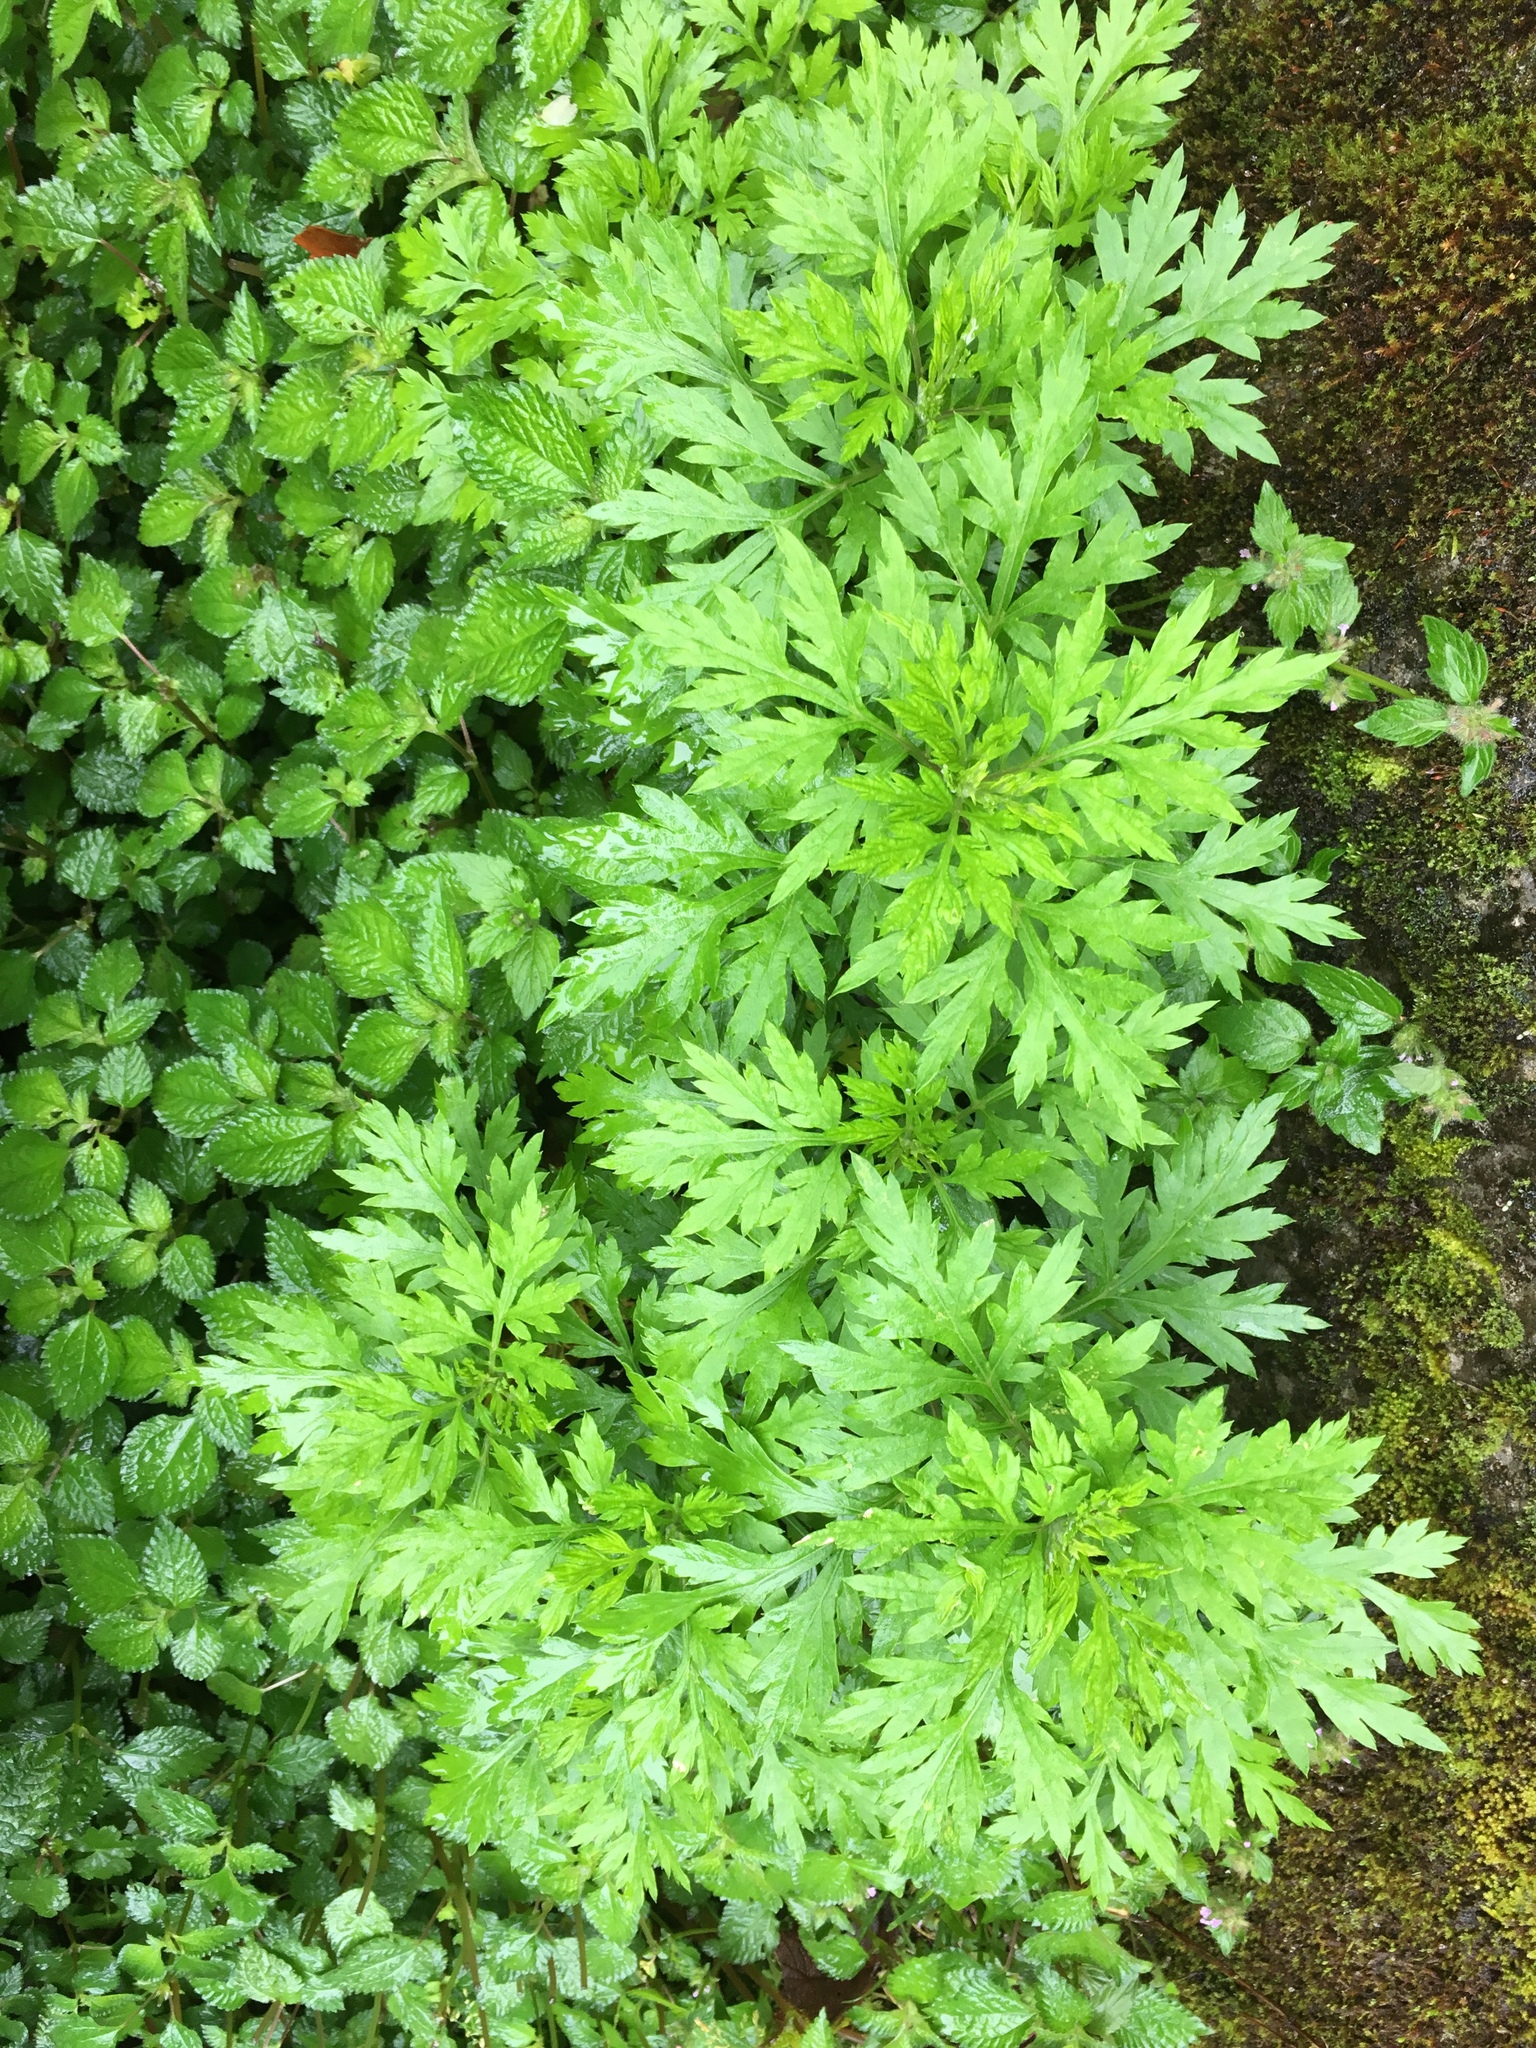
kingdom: Plantae
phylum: Tracheophyta
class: Magnoliopsida
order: Asterales
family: Asteraceae
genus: Artemisia
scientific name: Artemisia indica
